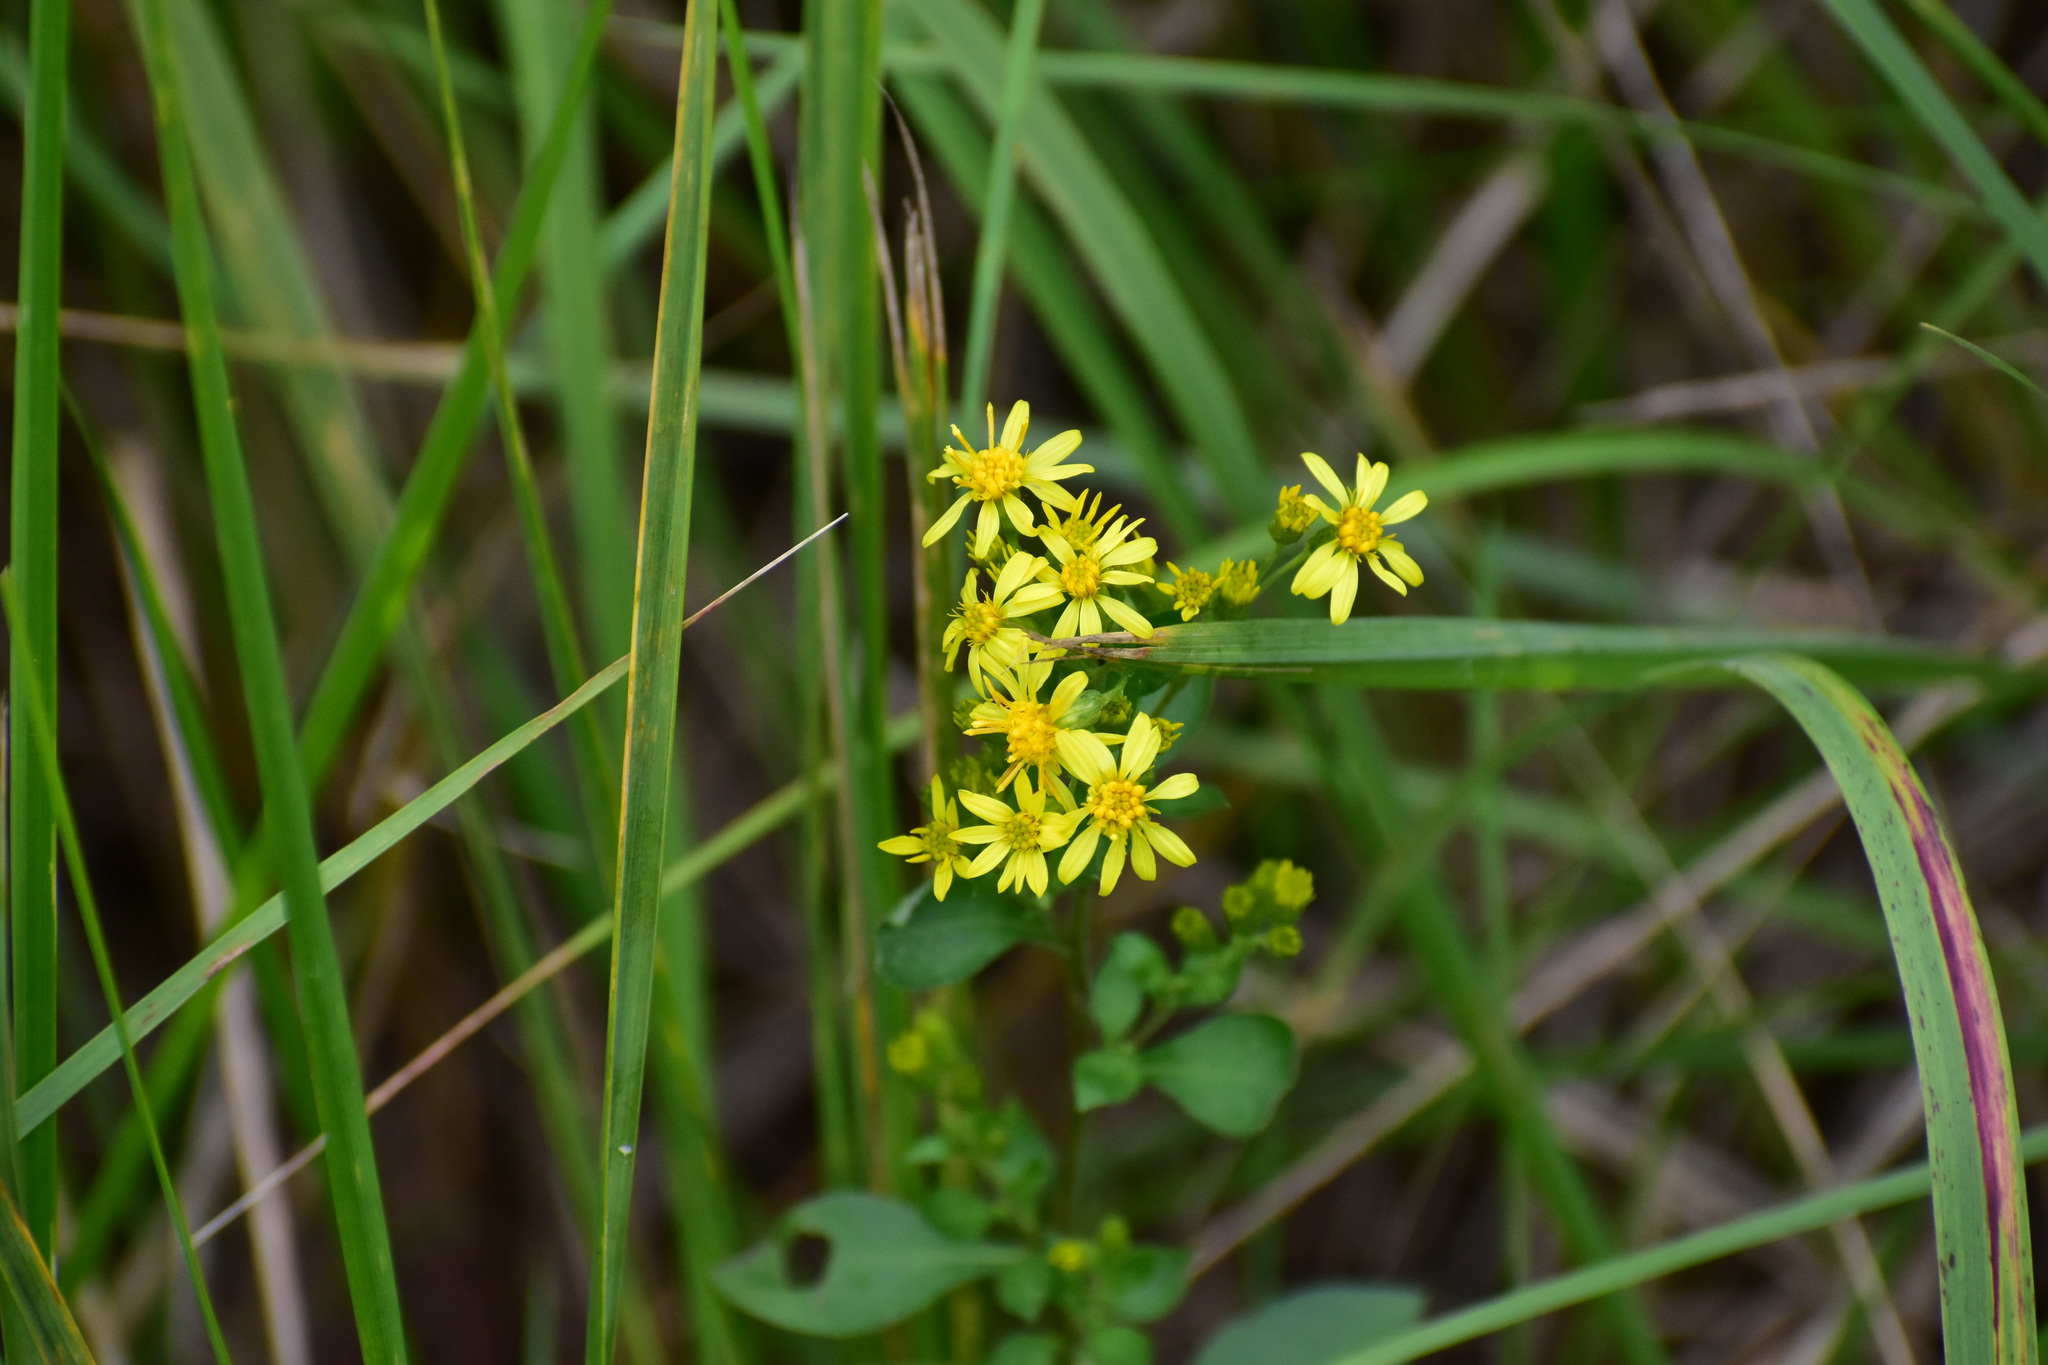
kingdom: Plantae
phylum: Tracheophyta
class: Magnoliopsida
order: Asterales
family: Asteraceae
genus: Solidago
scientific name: Solidago virgaurea
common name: Goldenrod
